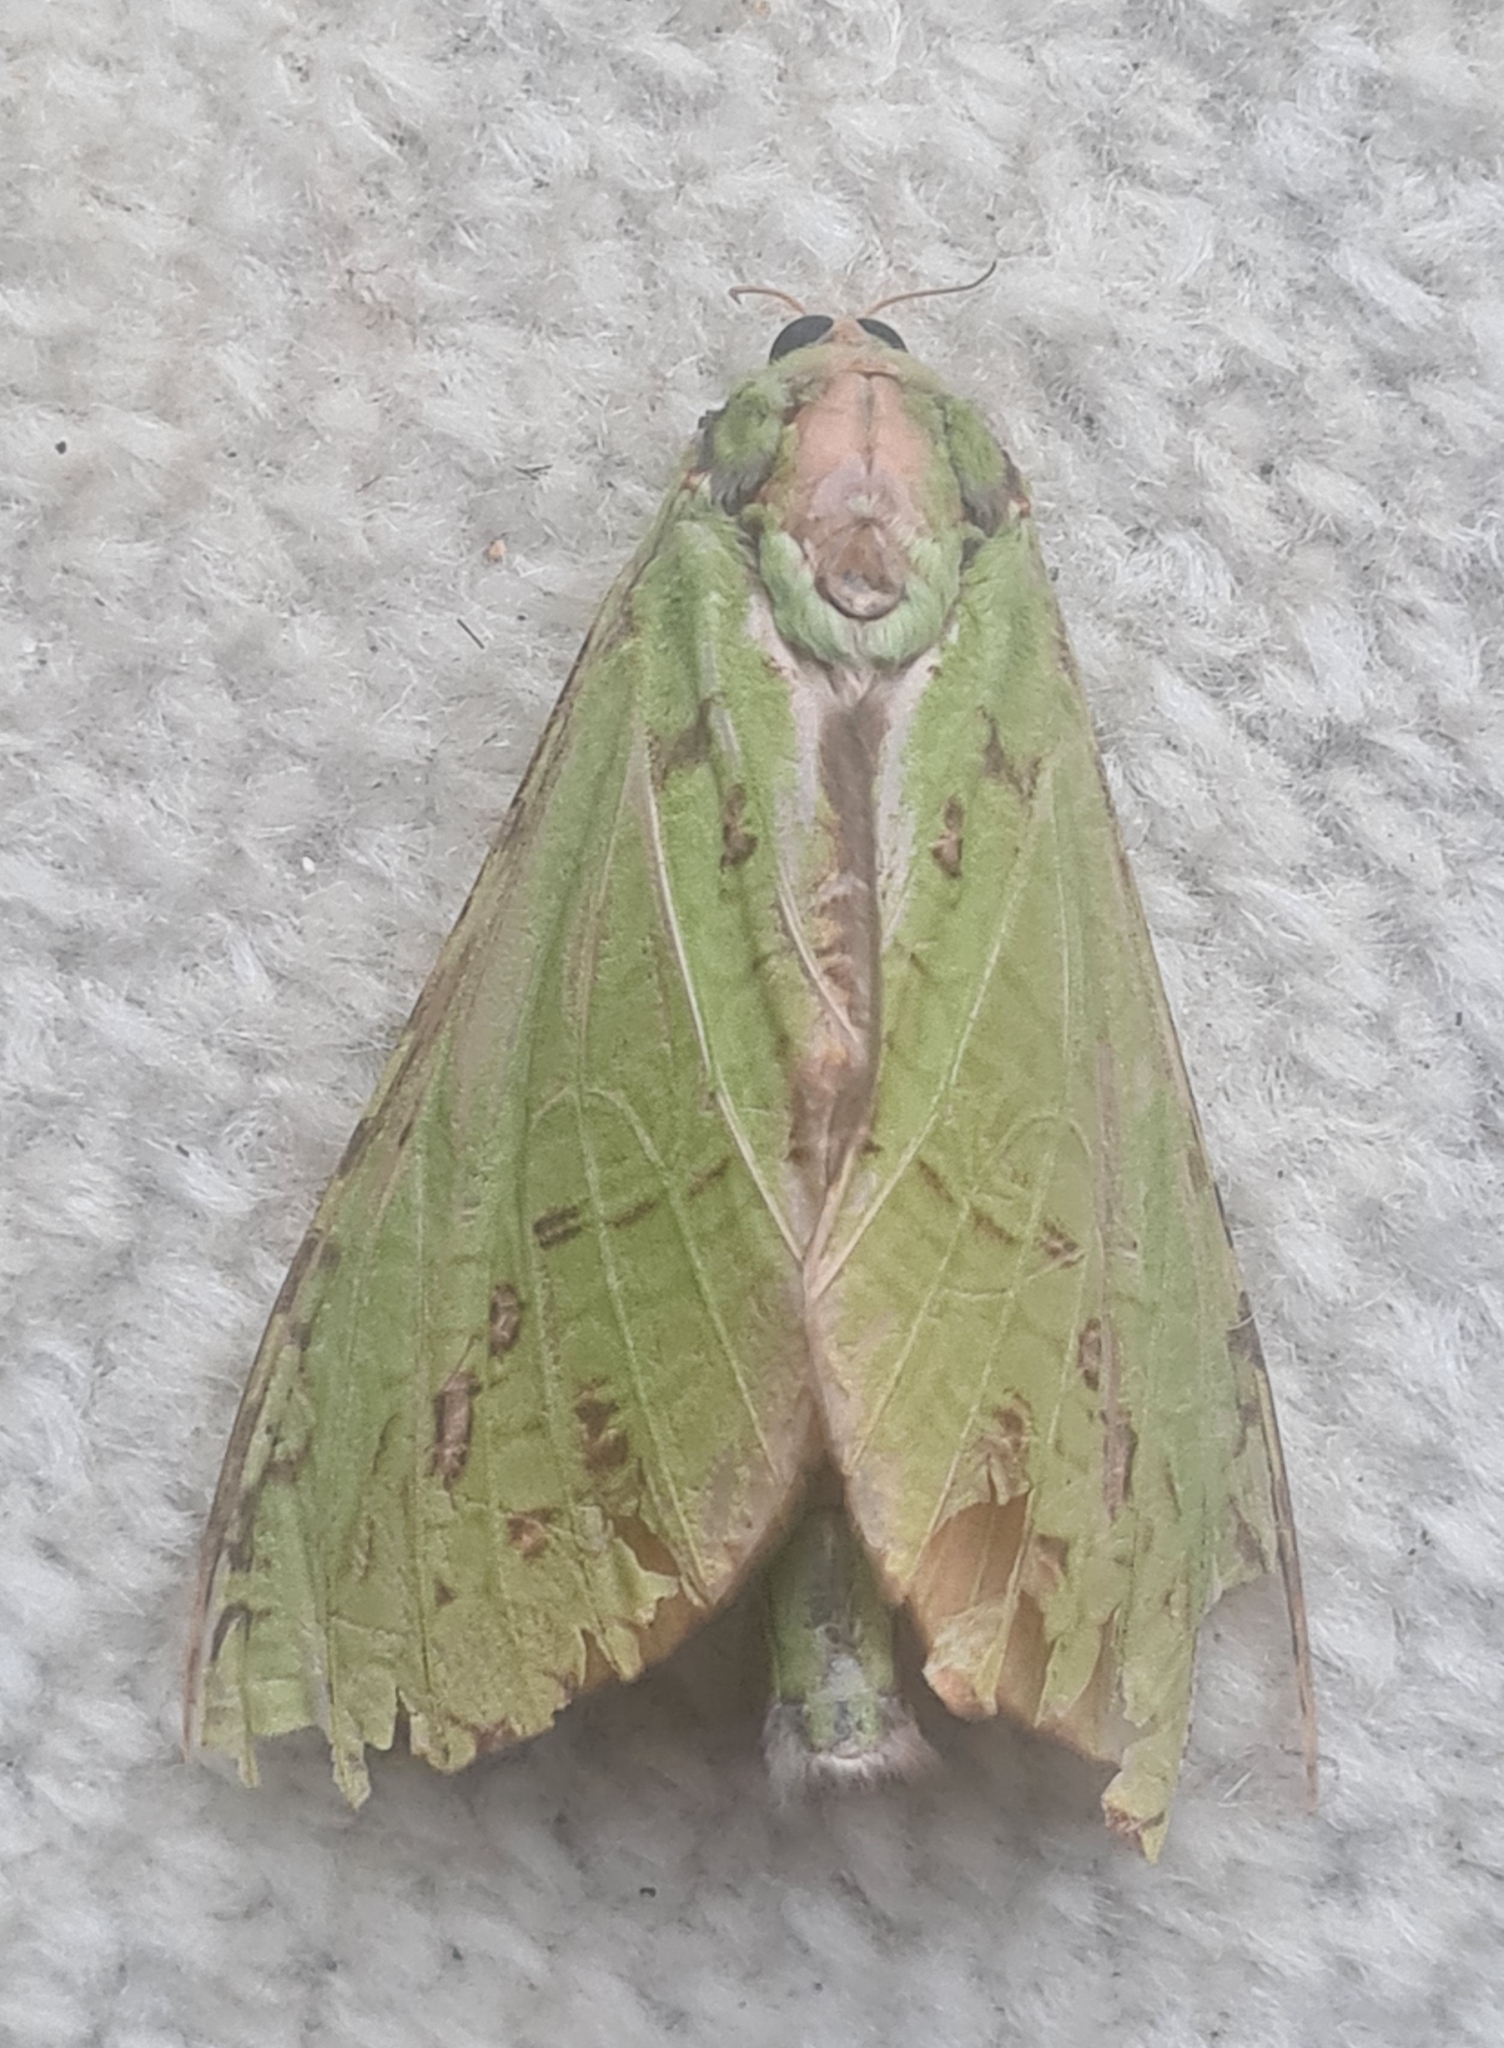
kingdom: Animalia
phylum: Arthropoda
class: Insecta
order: Lepidoptera
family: Hepialidae
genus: Aenetus
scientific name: Aenetus virescens
